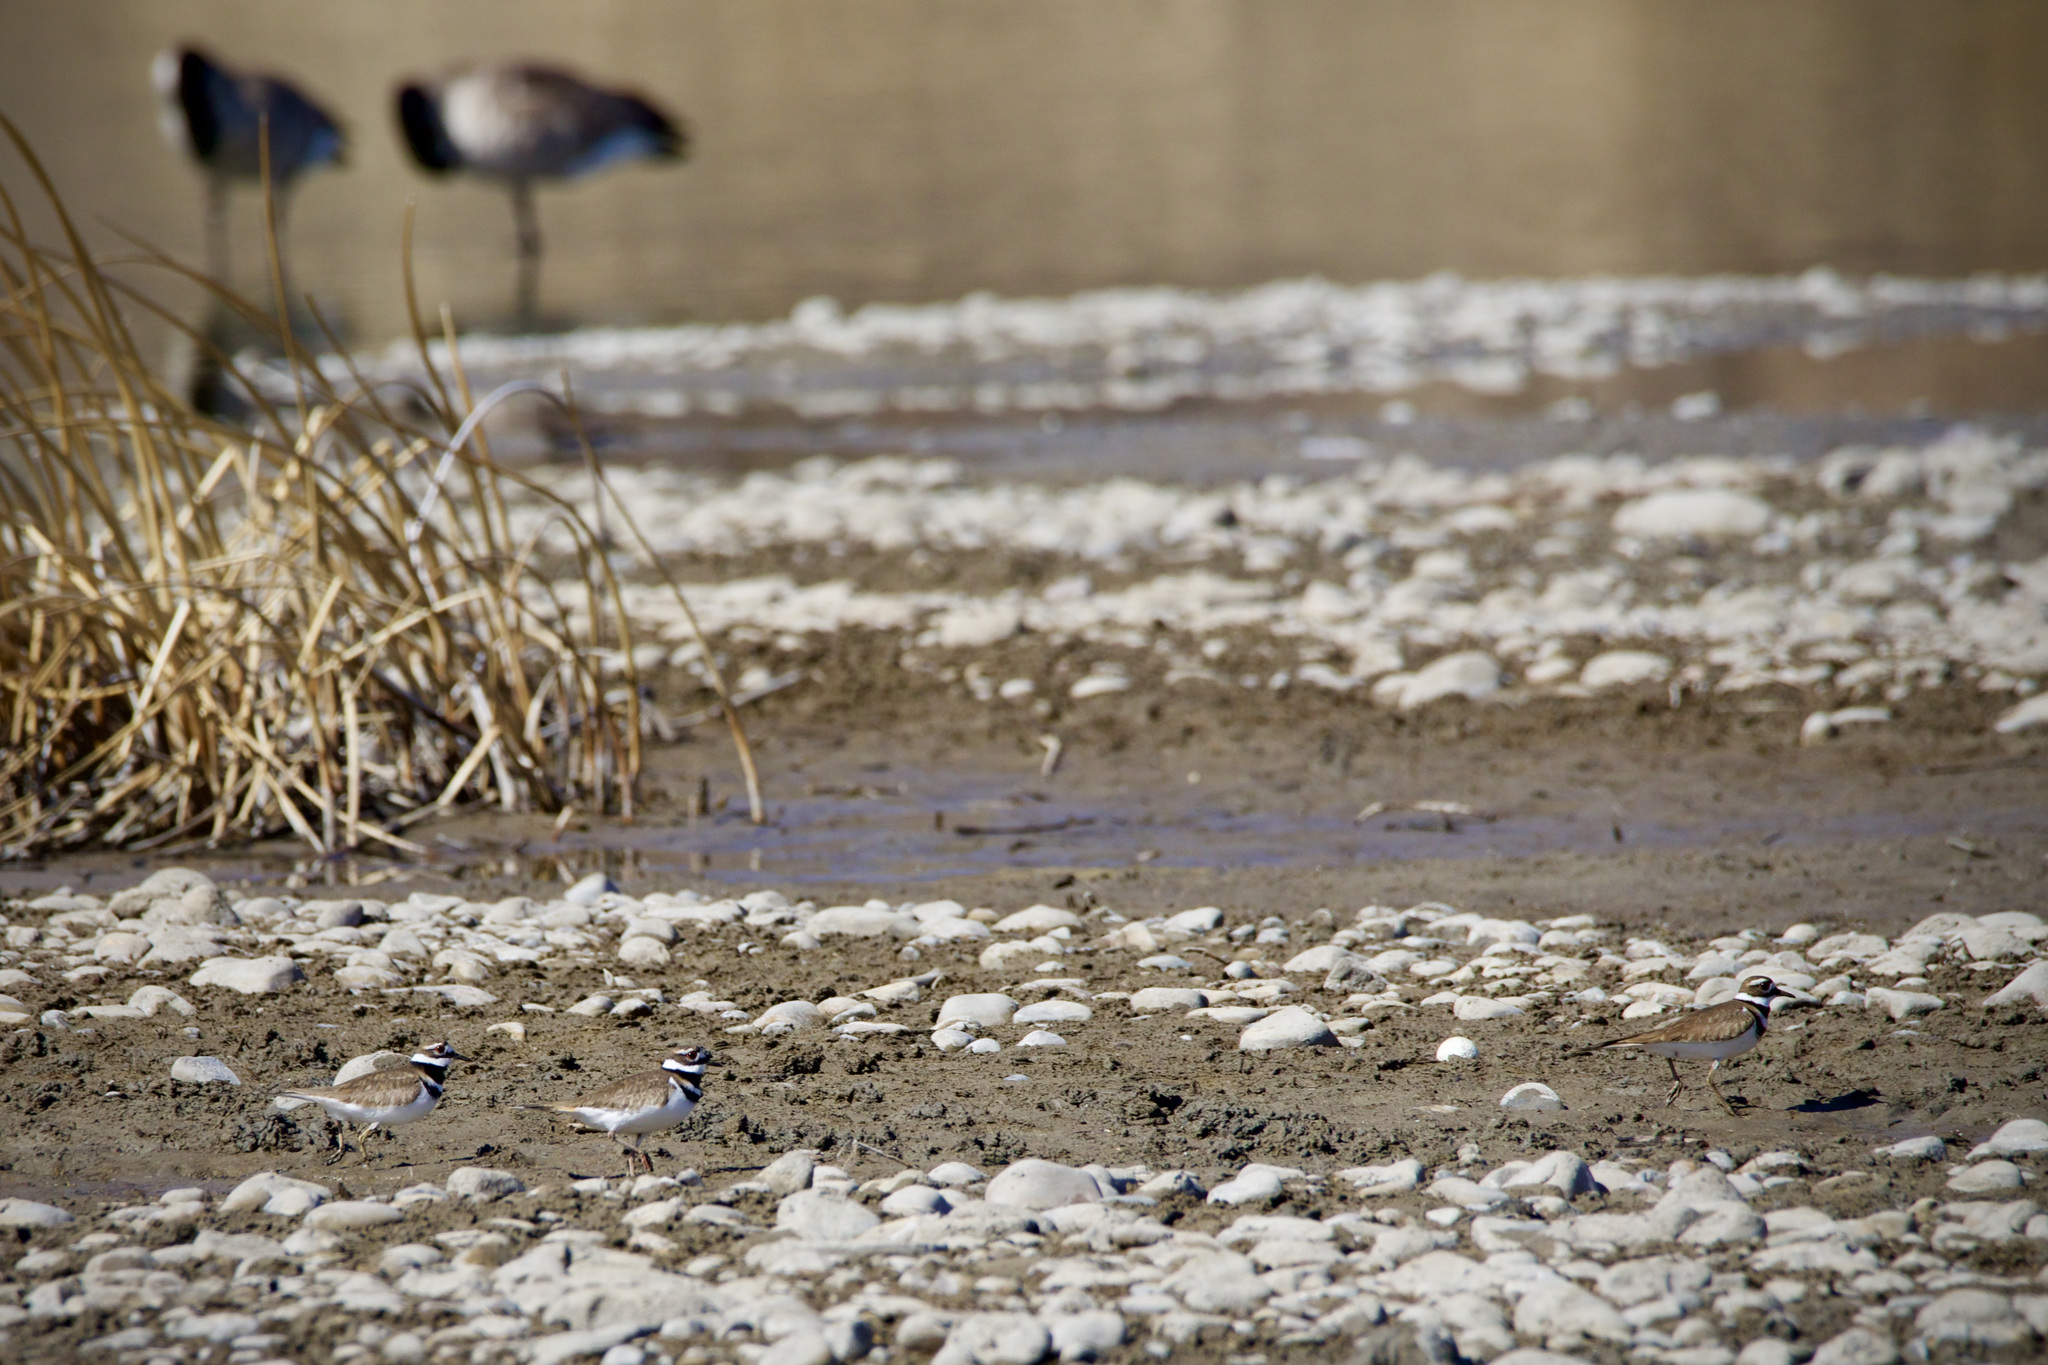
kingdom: Animalia
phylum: Chordata
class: Aves
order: Charadriiformes
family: Charadriidae
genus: Charadrius
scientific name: Charadrius vociferus
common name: Killdeer
